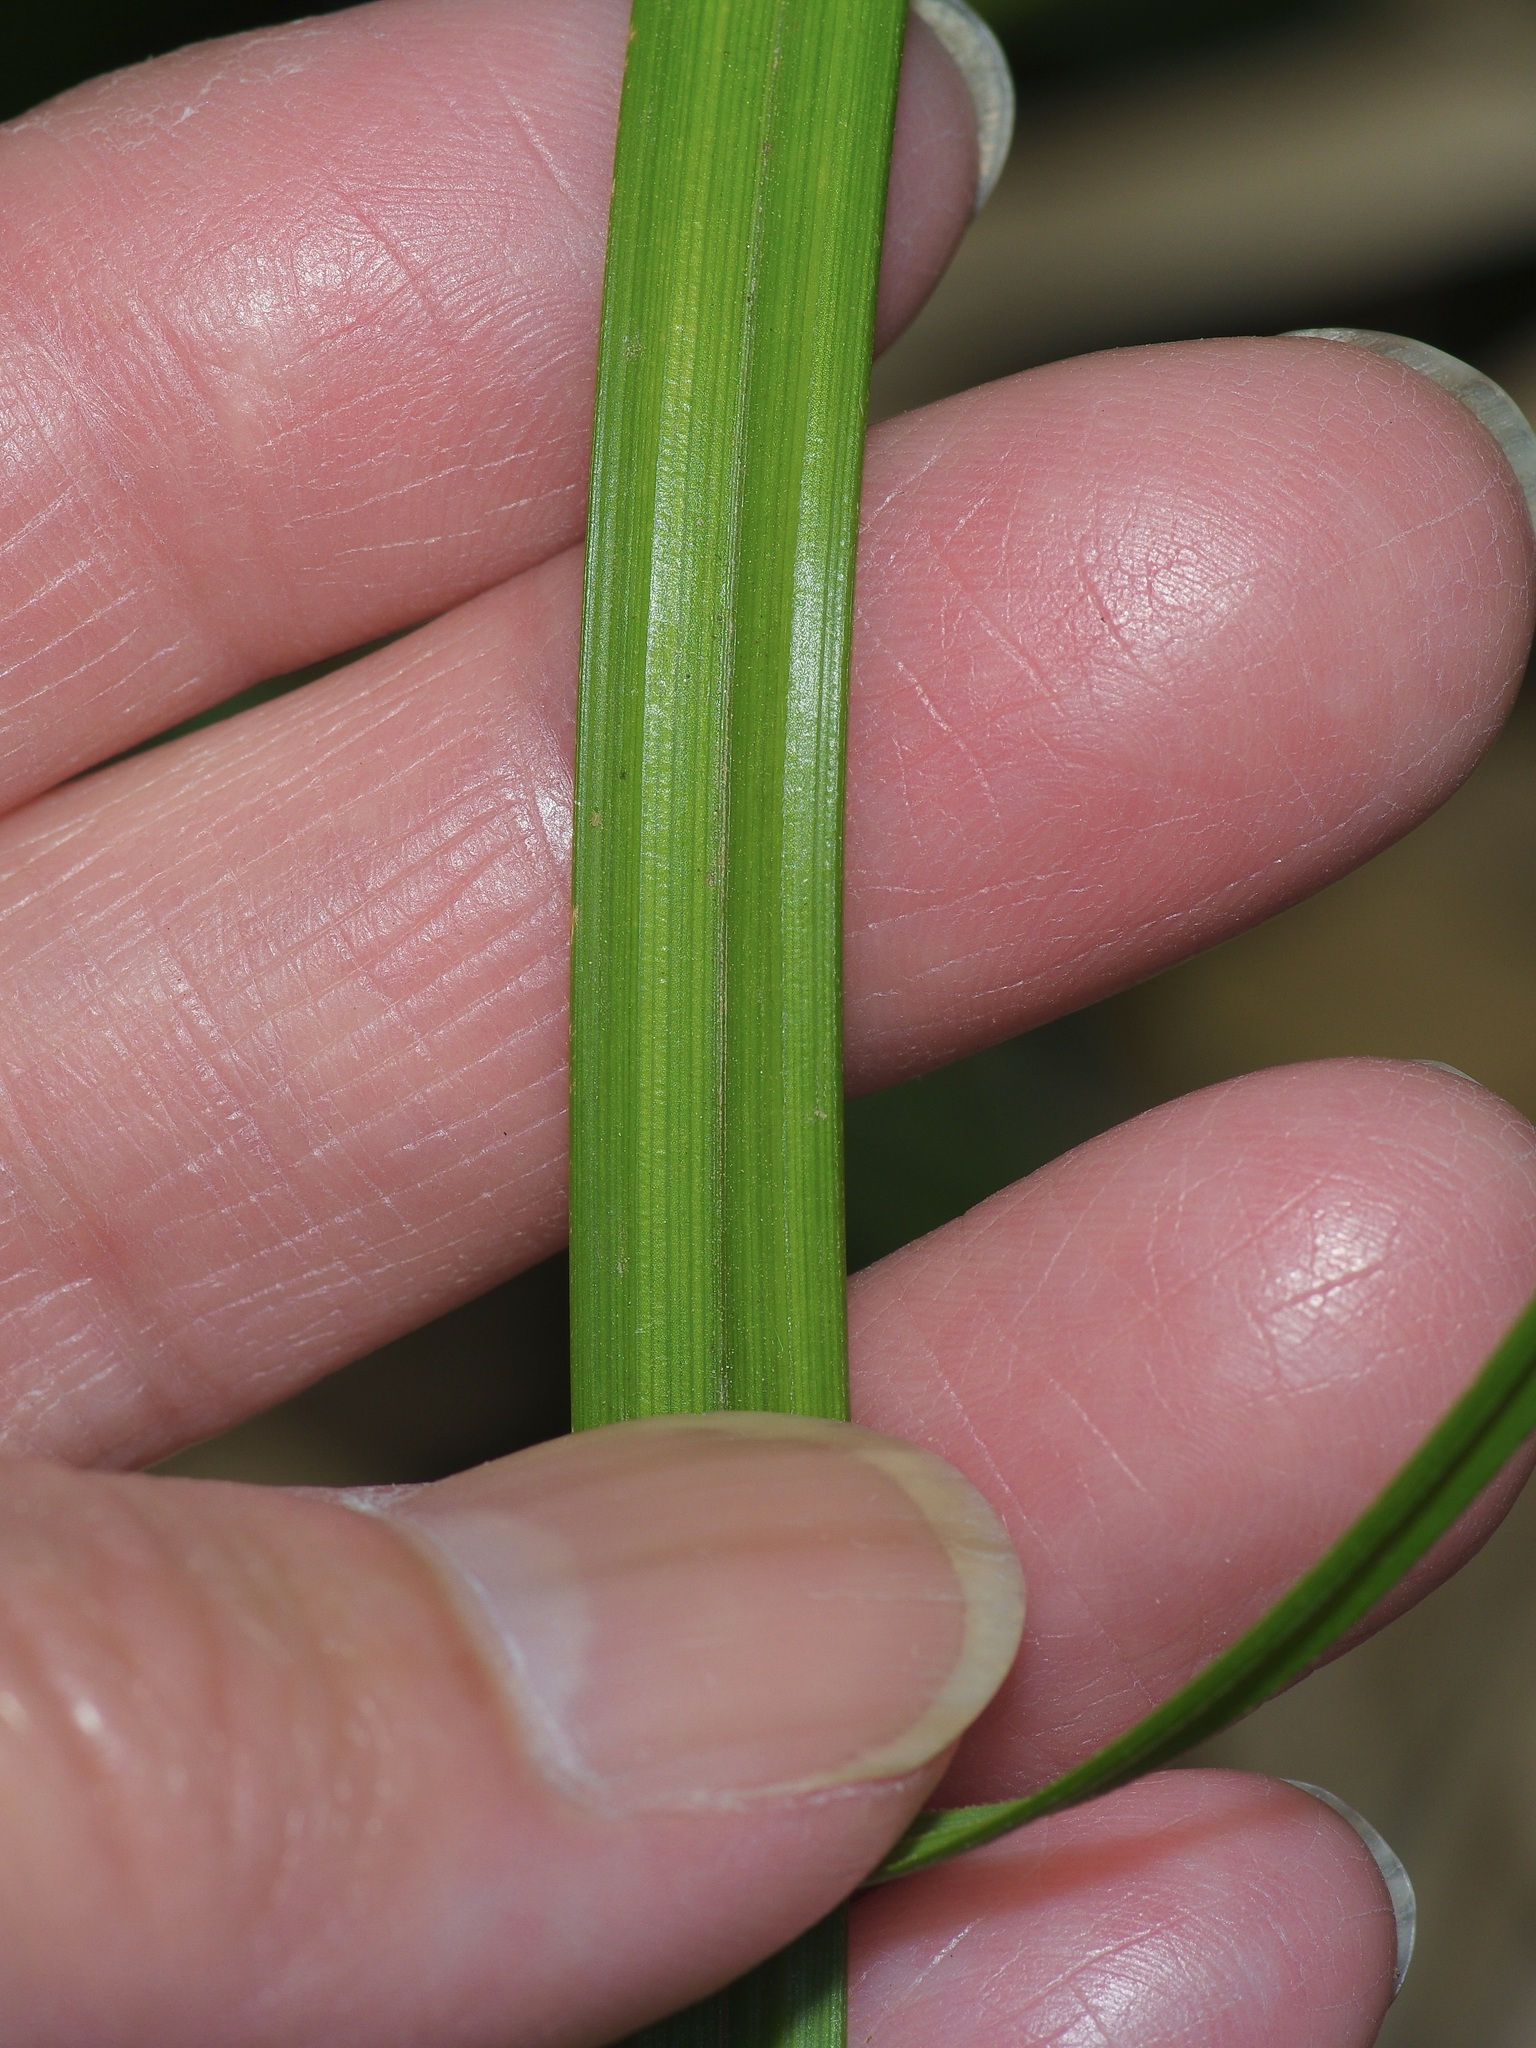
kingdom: Plantae
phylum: Tracheophyta
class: Liliopsida
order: Poales
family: Cyperaceae
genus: Carex
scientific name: Carex emoryi
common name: Emory's sedge
